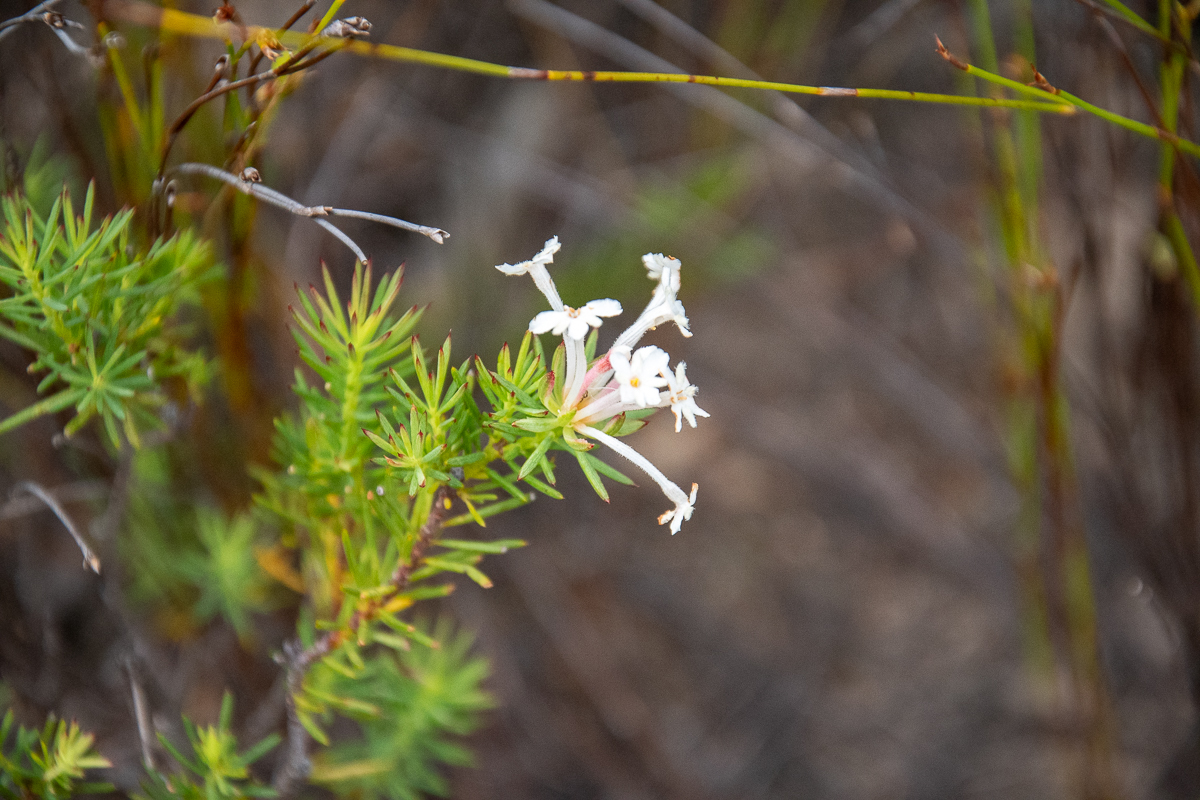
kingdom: Plantae
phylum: Tracheophyta
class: Magnoliopsida
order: Malvales
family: Thymelaeaceae
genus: Gnidia
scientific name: Gnidia pinifolia
